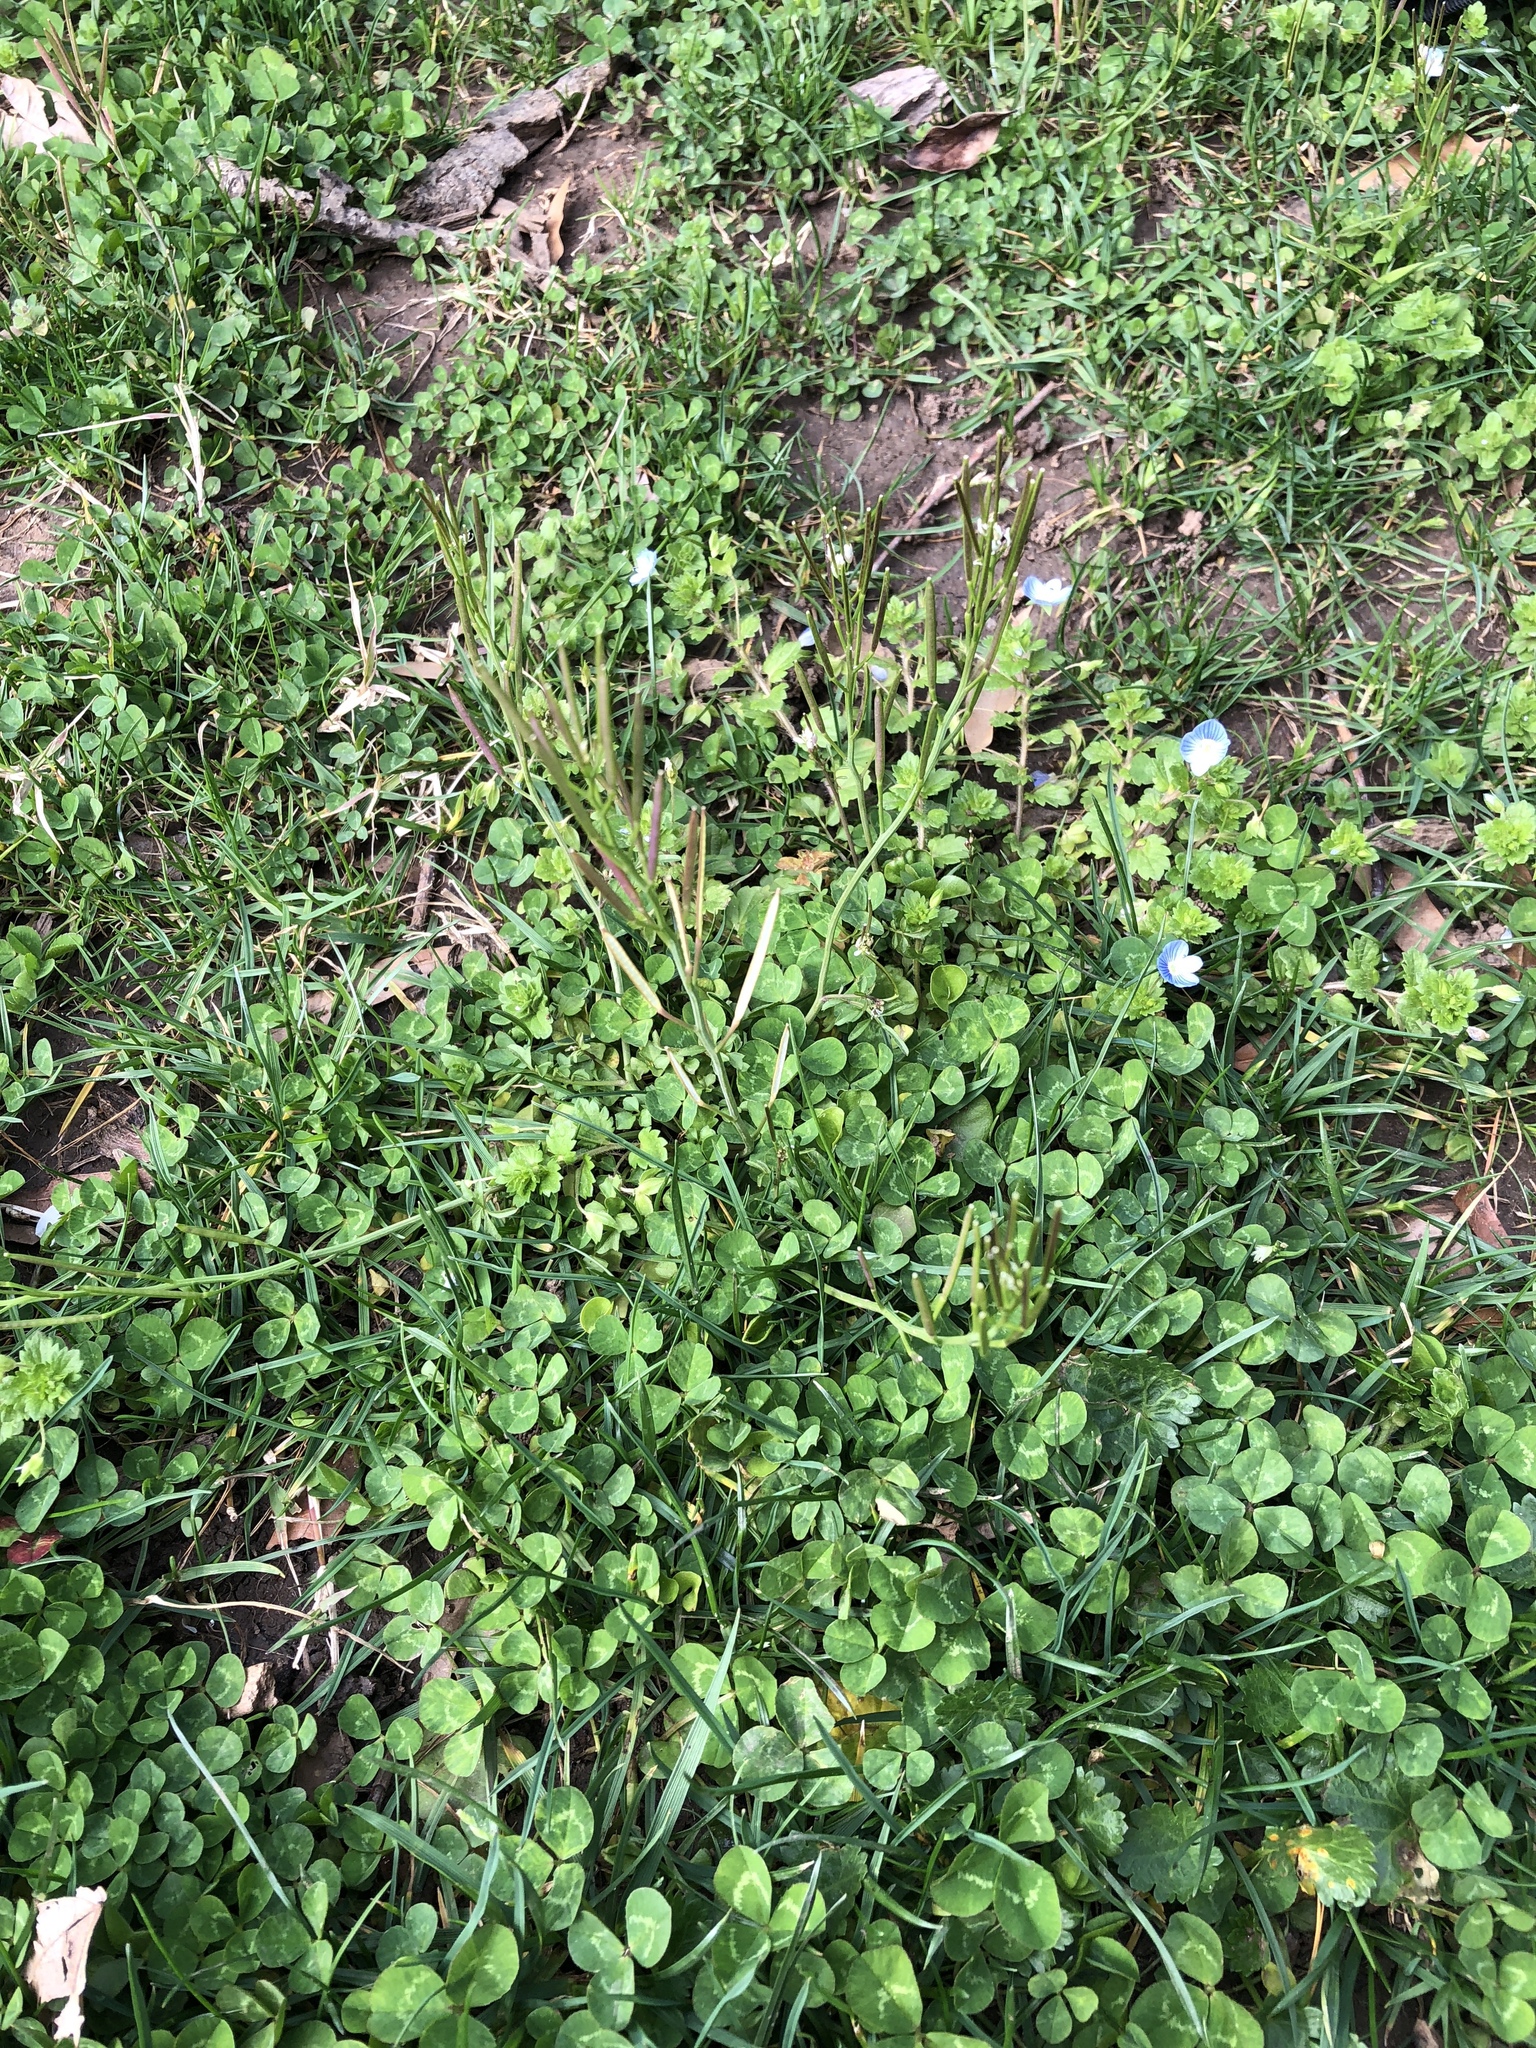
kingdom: Plantae
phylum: Tracheophyta
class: Magnoliopsida
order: Brassicales
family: Brassicaceae
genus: Cardamine
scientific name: Cardamine hirsuta
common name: Hairy bittercress
